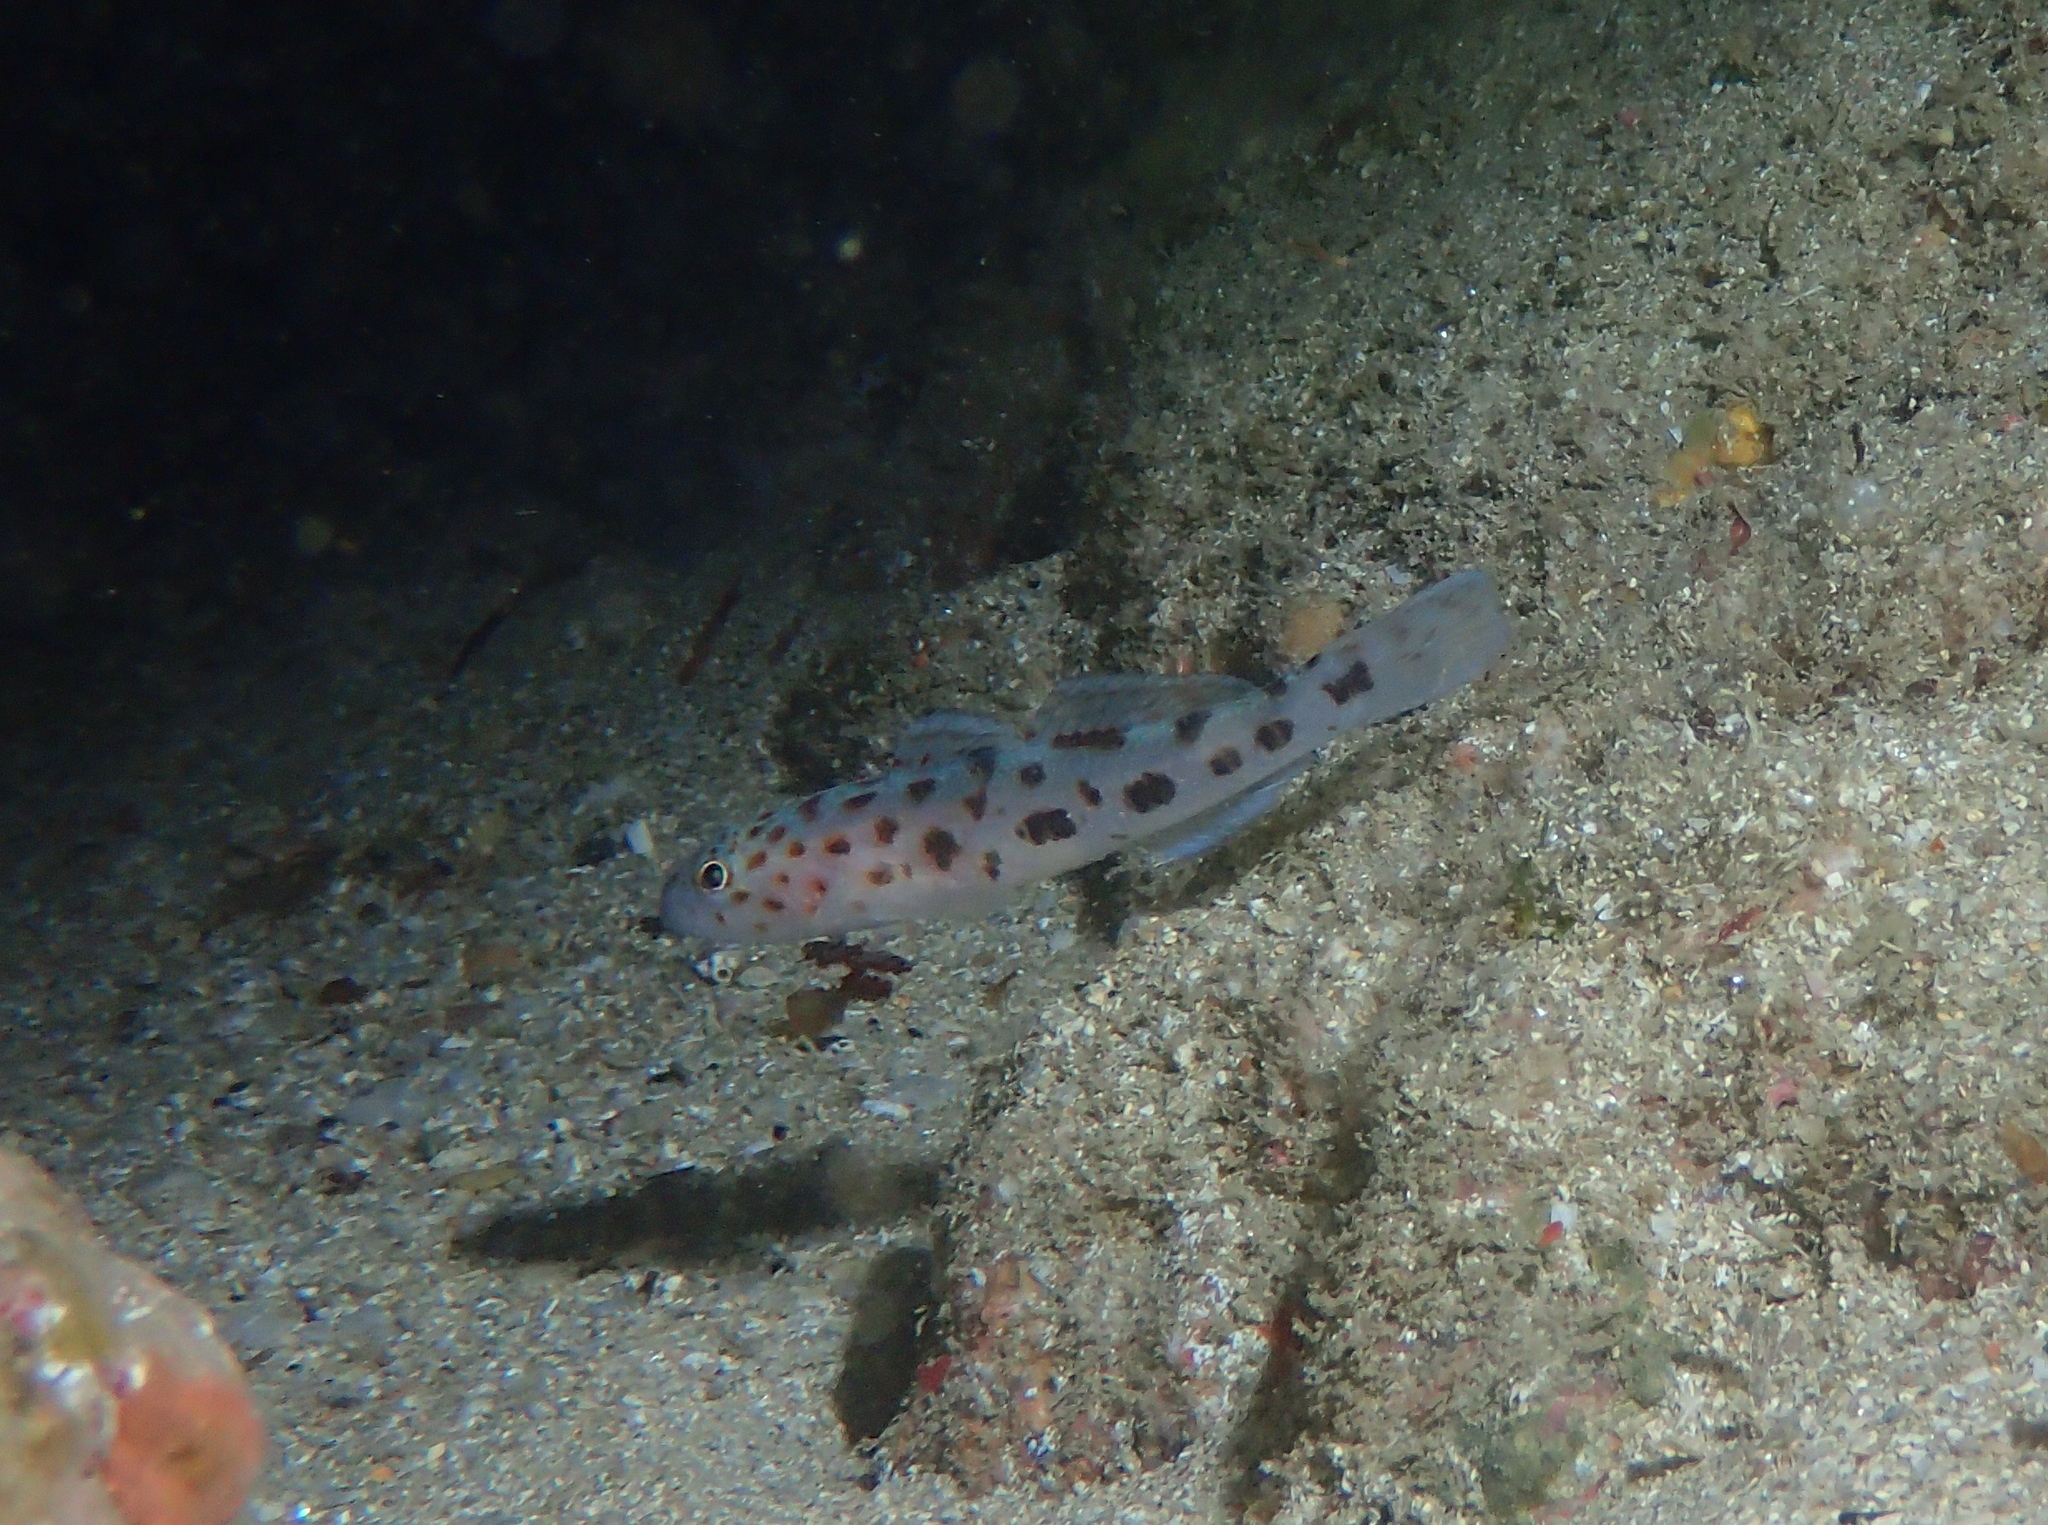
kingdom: Animalia
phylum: Chordata
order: Perciformes
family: Gobiidae
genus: Thorogobius
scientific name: Thorogobius ephippiatus
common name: Leopard-spotted goby
